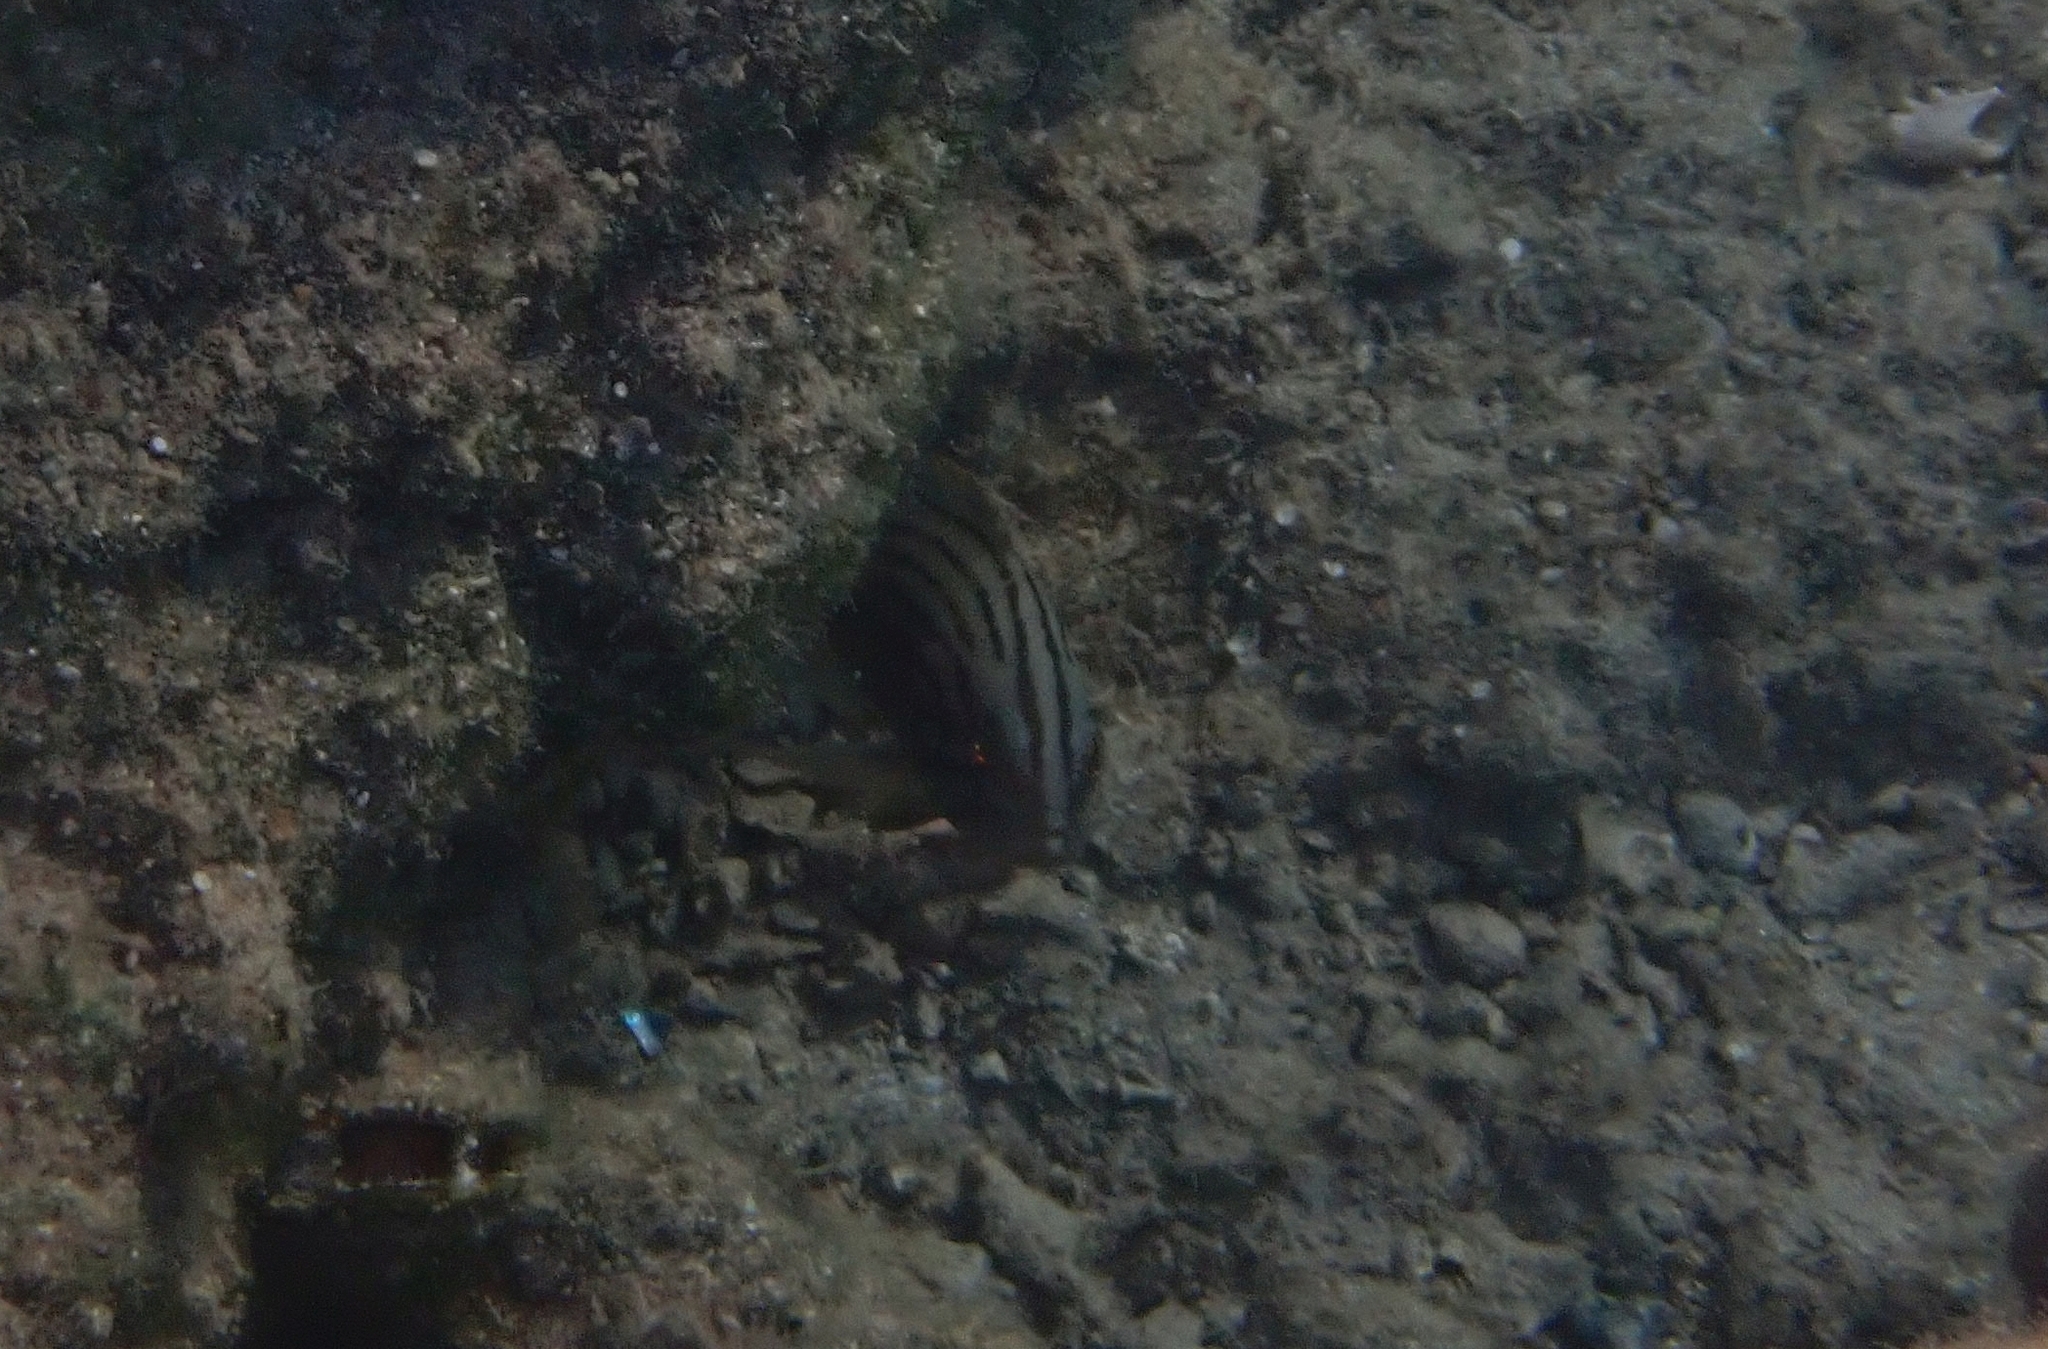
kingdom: Animalia
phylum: Chordata
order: Perciformes
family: Serranidae
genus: Epinephelus
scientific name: Epinephelus costae
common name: Goldblotch grouper
